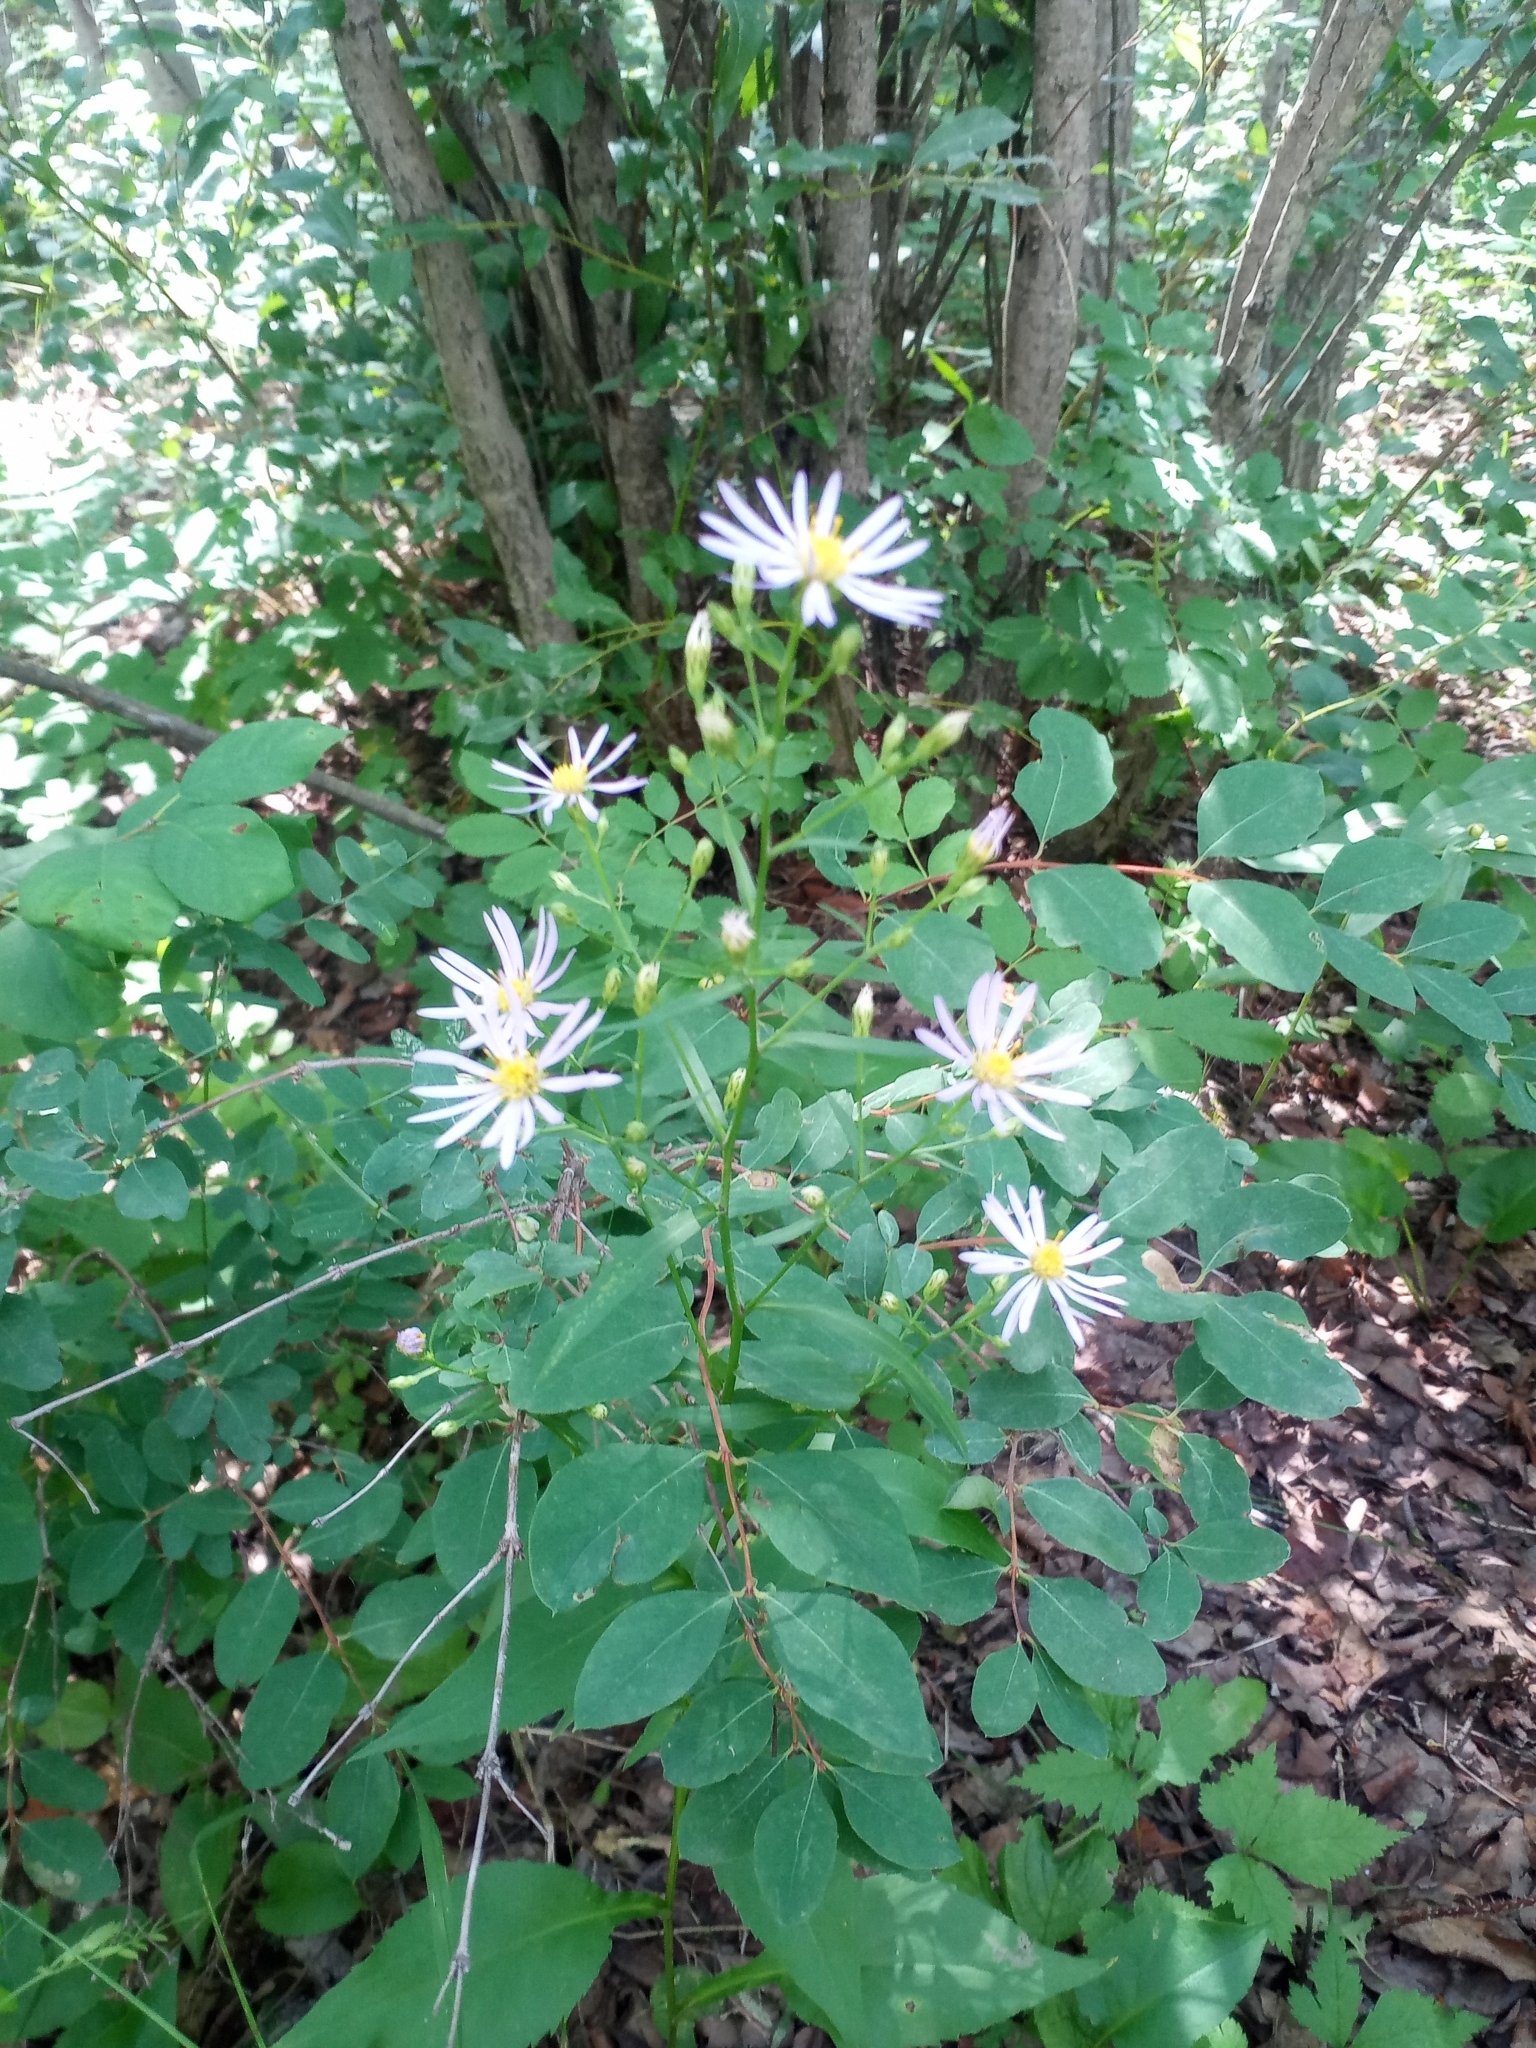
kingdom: Plantae
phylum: Tracheophyta
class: Magnoliopsida
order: Asterales
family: Asteraceae
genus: Symphyotrichum
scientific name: Symphyotrichum ciliolatum
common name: Fringed blue aster
